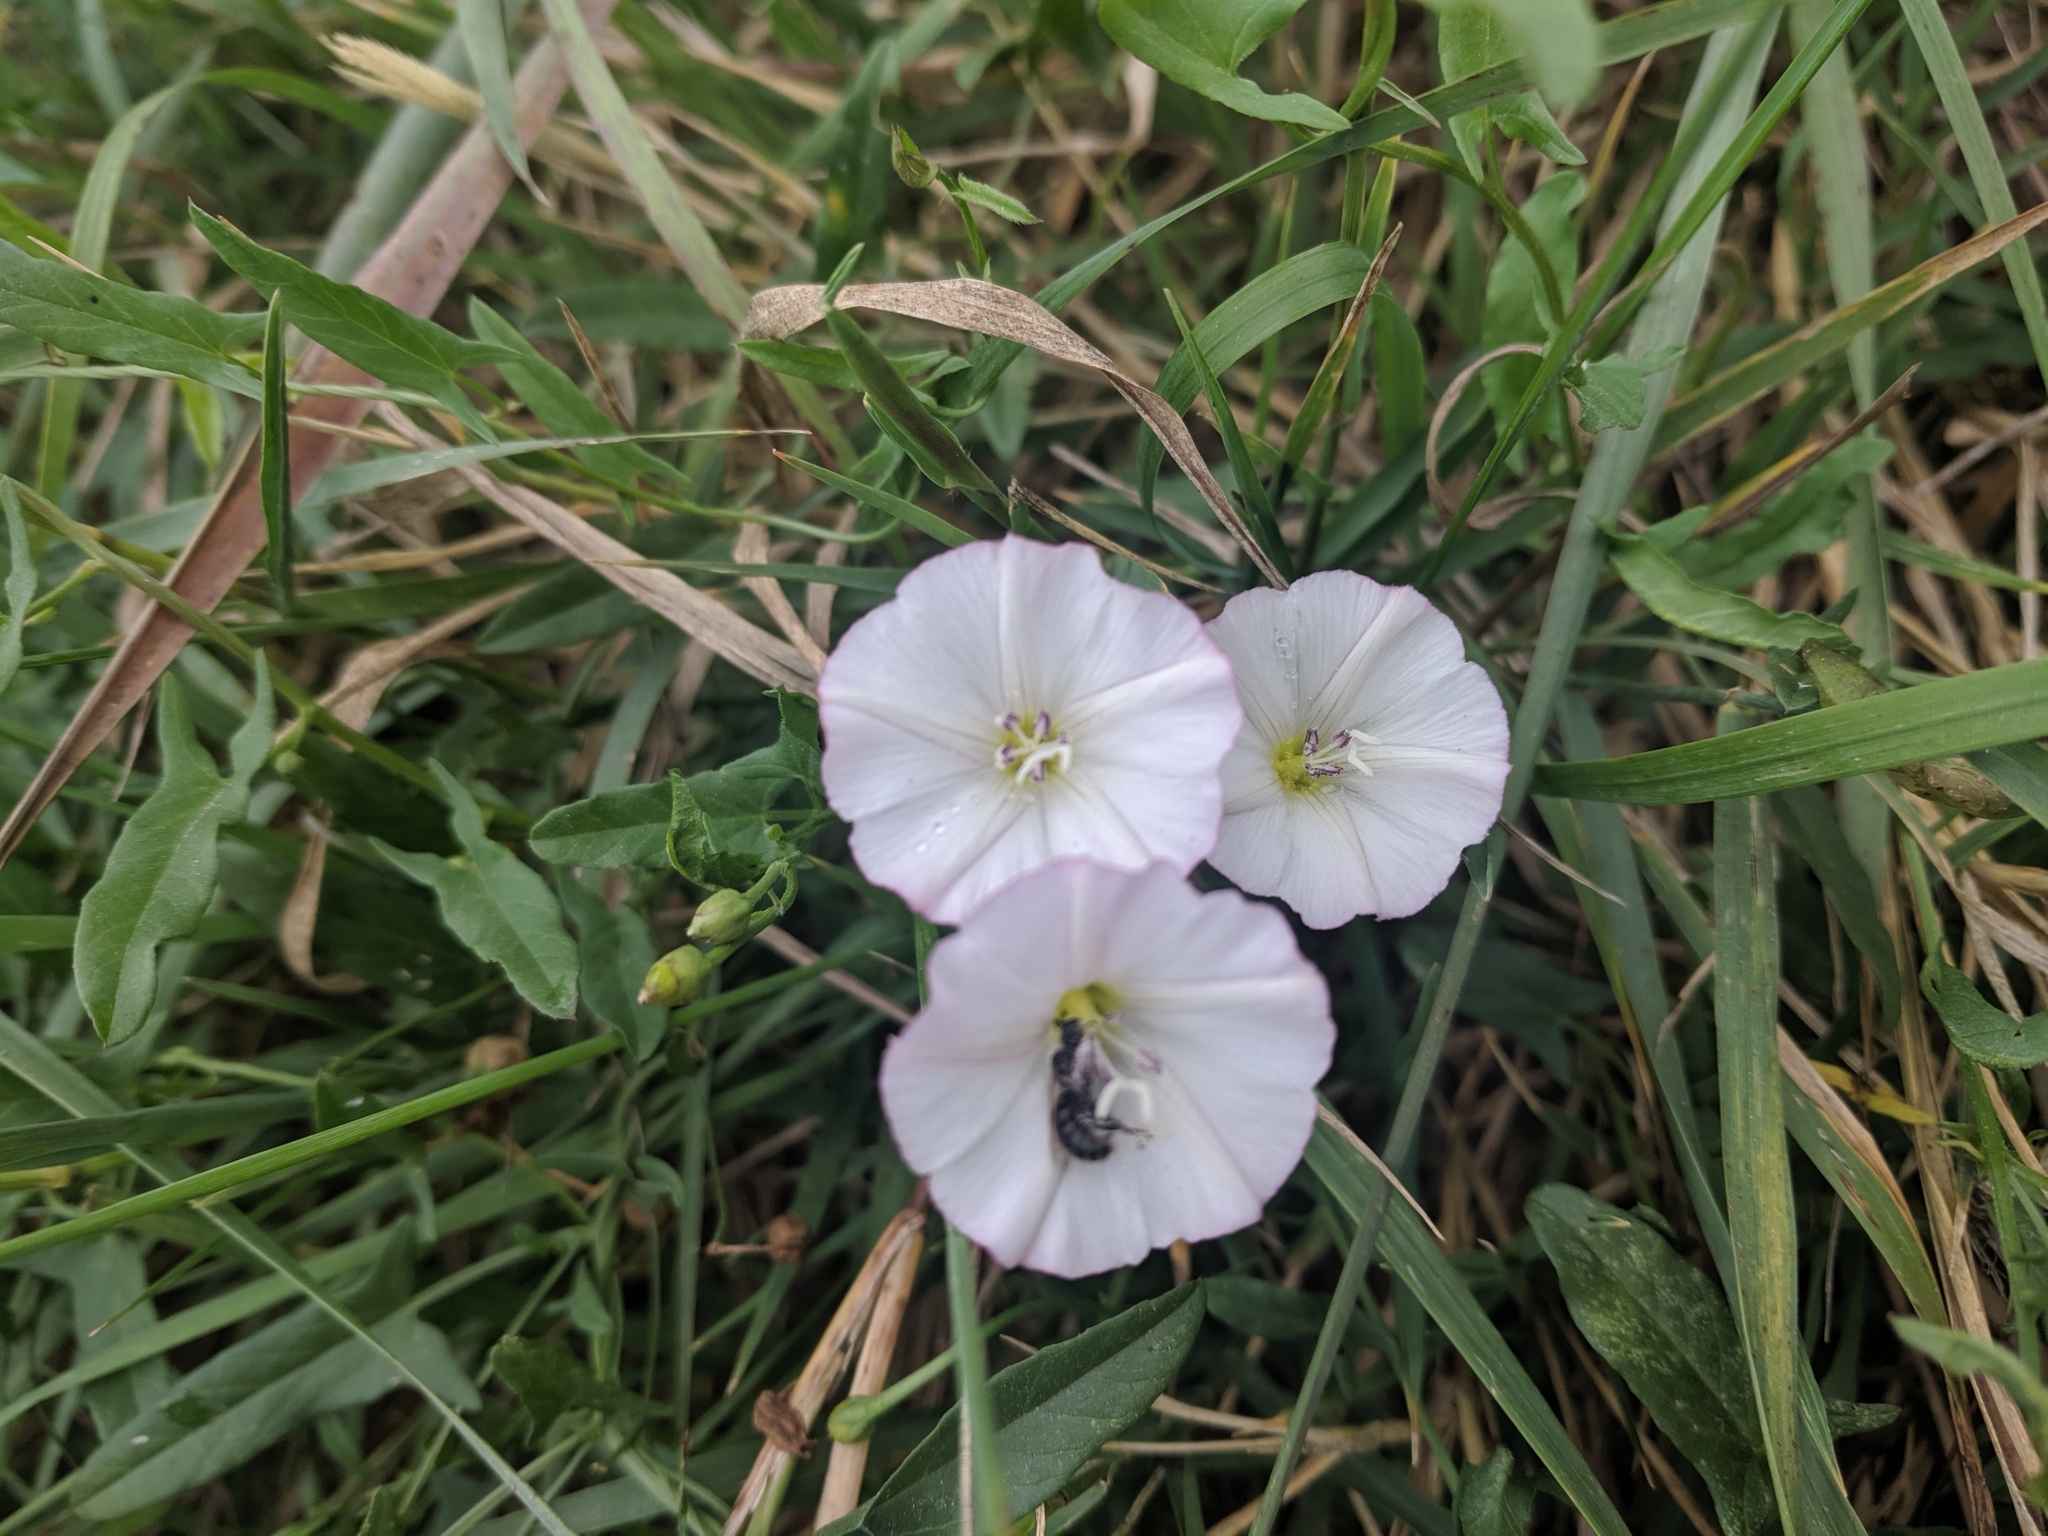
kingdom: Plantae
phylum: Tracheophyta
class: Magnoliopsida
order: Solanales
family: Convolvulaceae
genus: Convolvulus
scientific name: Convolvulus arvensis
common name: Field bindweed
